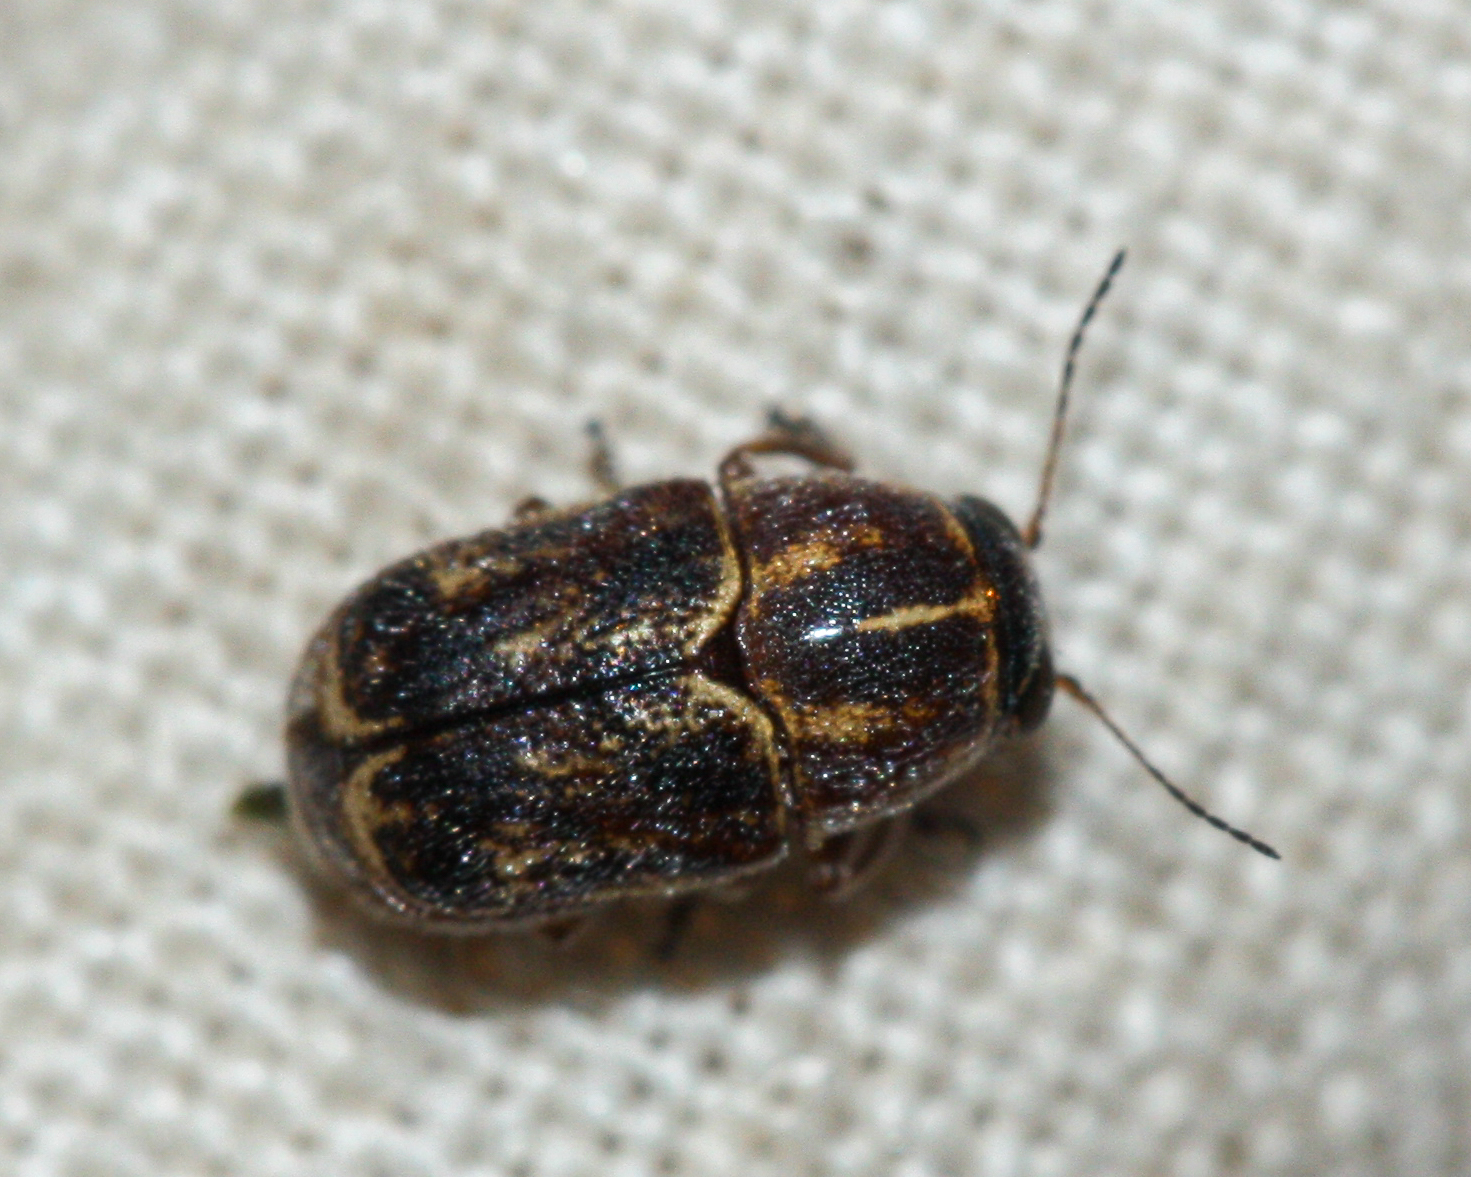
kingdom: Animalia
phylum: Arthropoda
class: Insecta
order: Coleoptera
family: Chrysomelidae
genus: Pachybrachis
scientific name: Pachybrachis marmoratus
